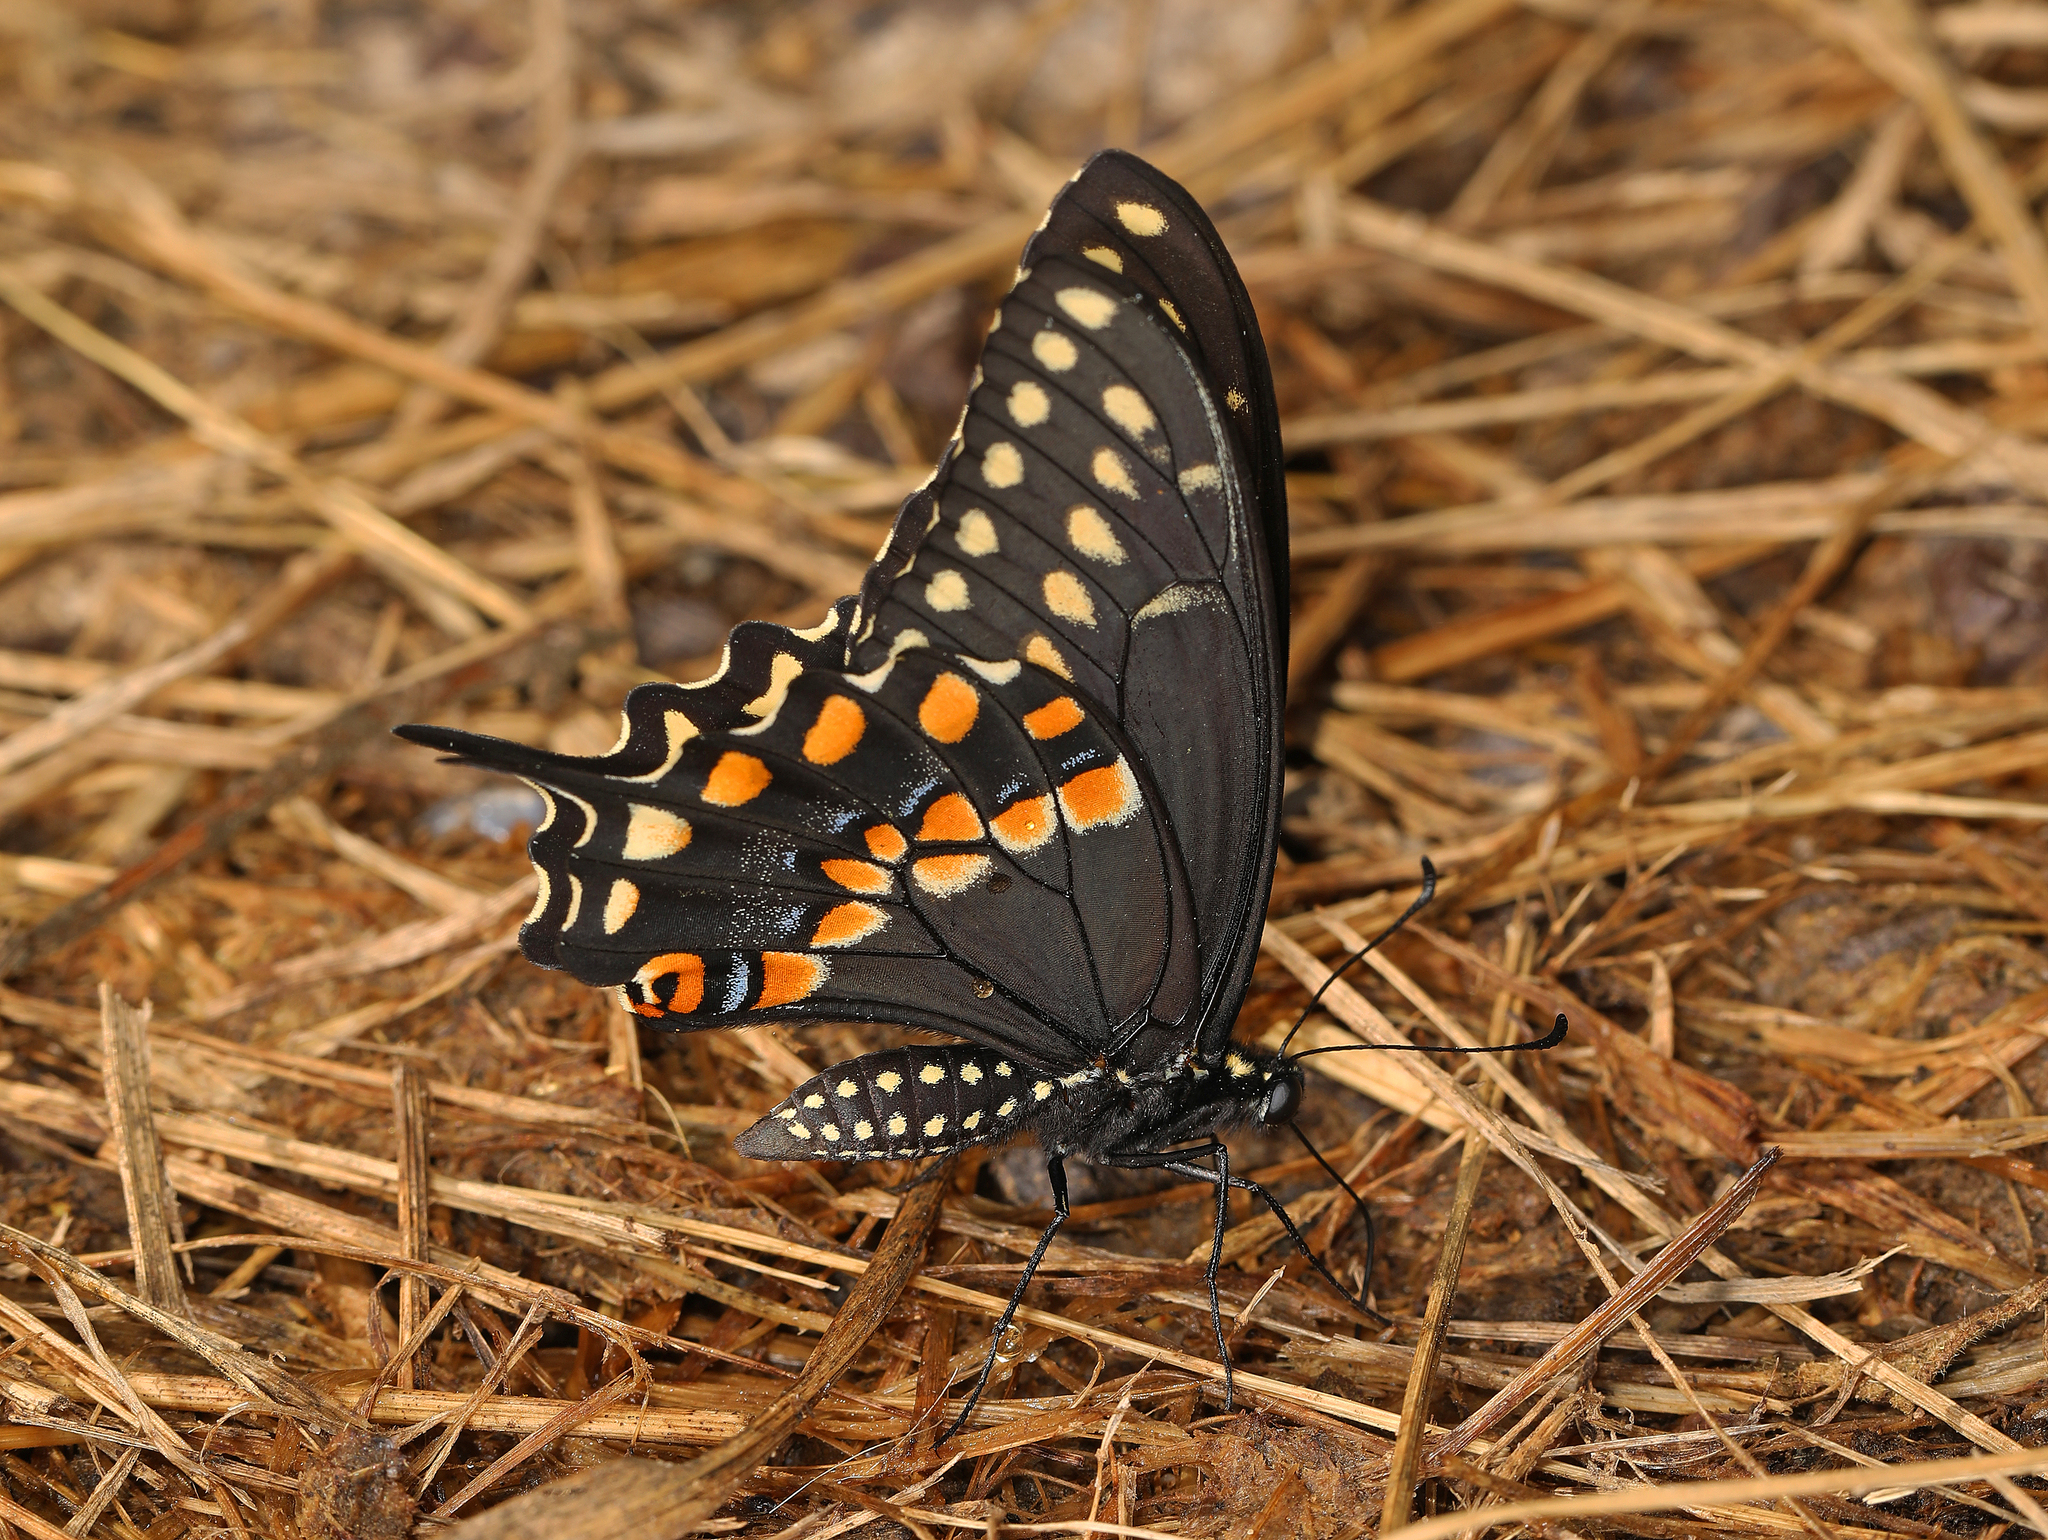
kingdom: Animalia
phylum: Arthropoda
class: Insecta
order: Lepidoptera
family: Papilionidae
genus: Papilio
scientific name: Papilio polyxenes
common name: Black swallowtail
